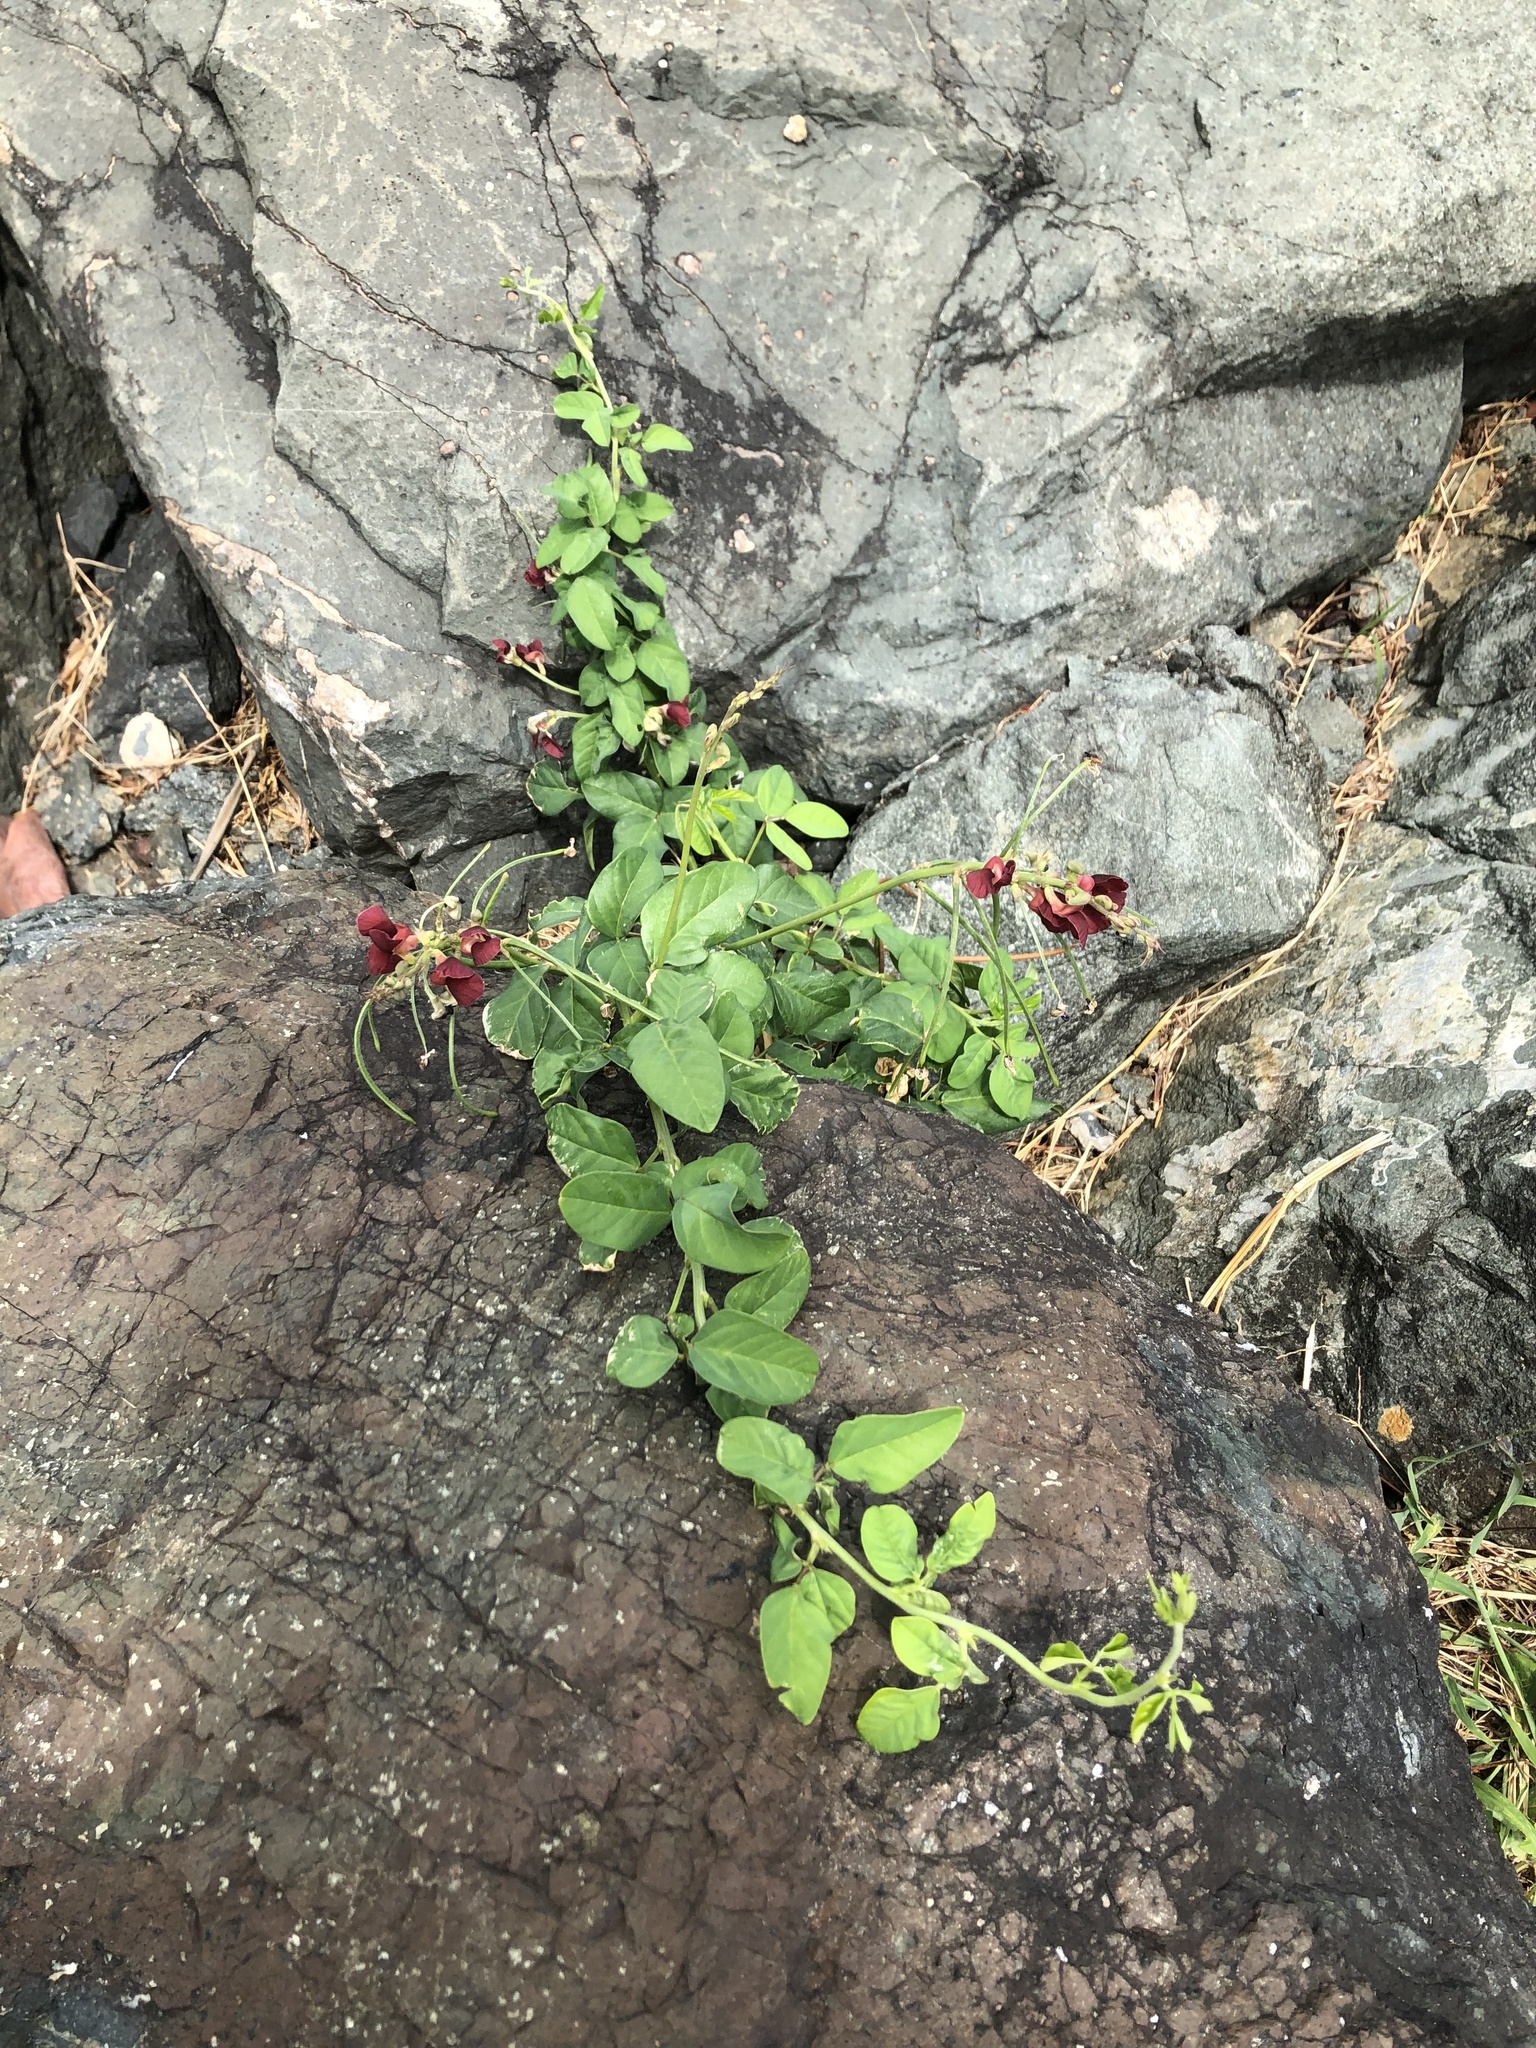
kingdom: Plantae
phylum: Tracheophyta
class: Magnoliopsida
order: Fabales
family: Fabaceae
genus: Macroptilium
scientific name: Macroptilium lathyroides
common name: Wild bushbean
